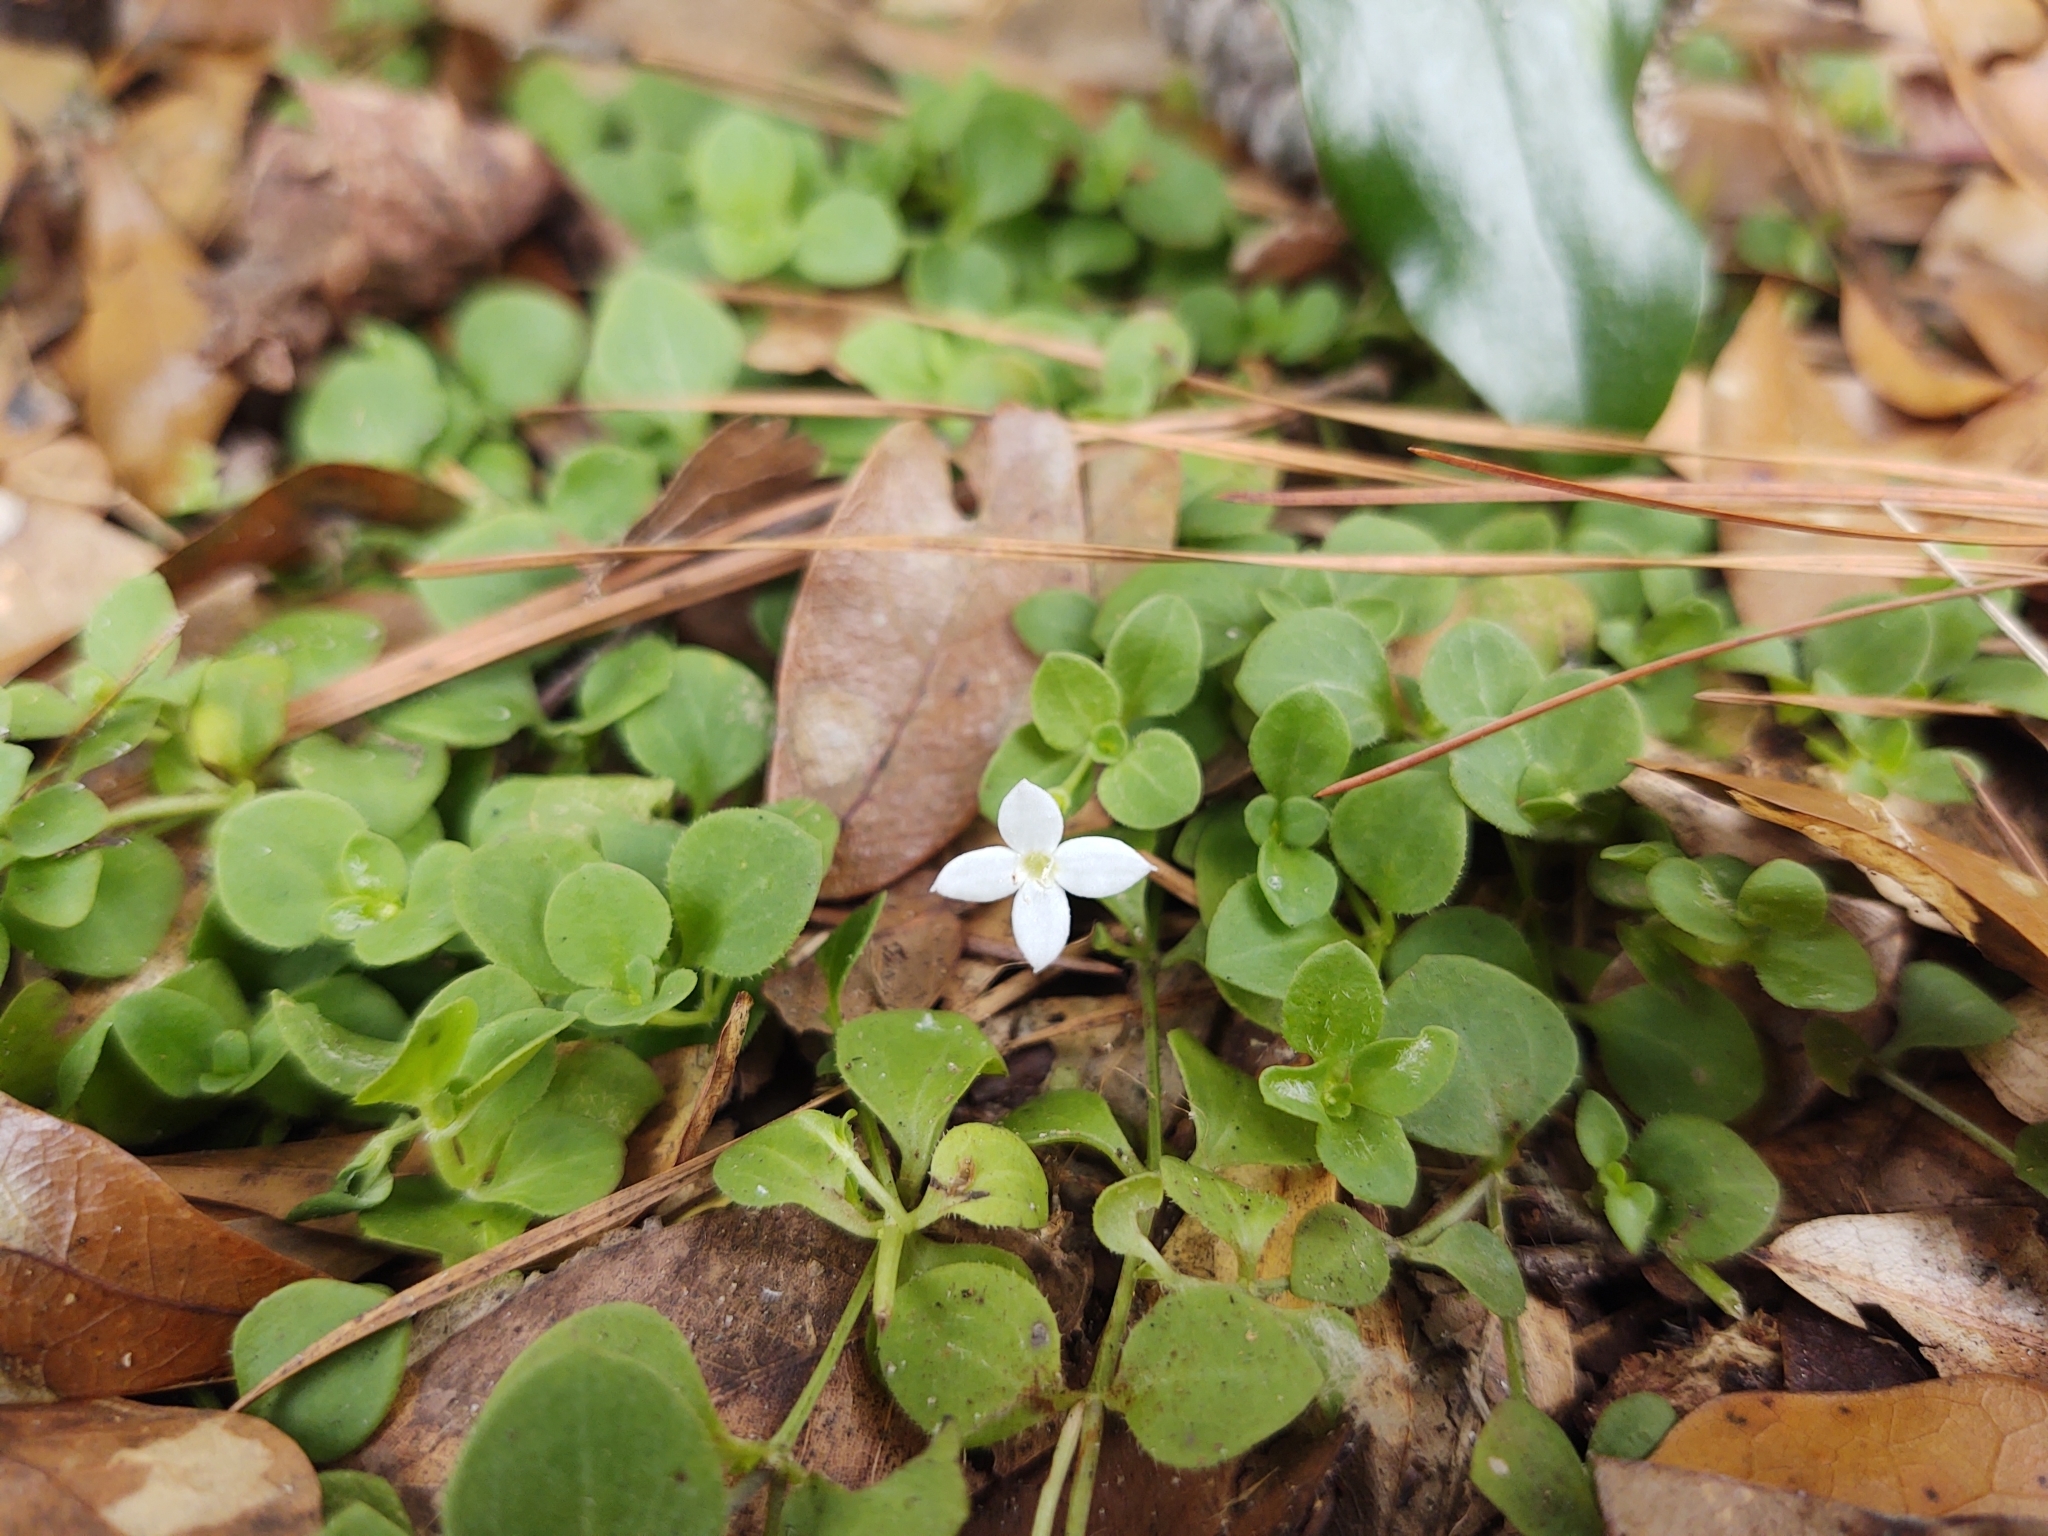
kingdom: Plantae
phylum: Tracheophyta
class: Magnoliopsida
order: Gentianales
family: Rubiaceae
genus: Houstonia
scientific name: Houstonia procumbens
